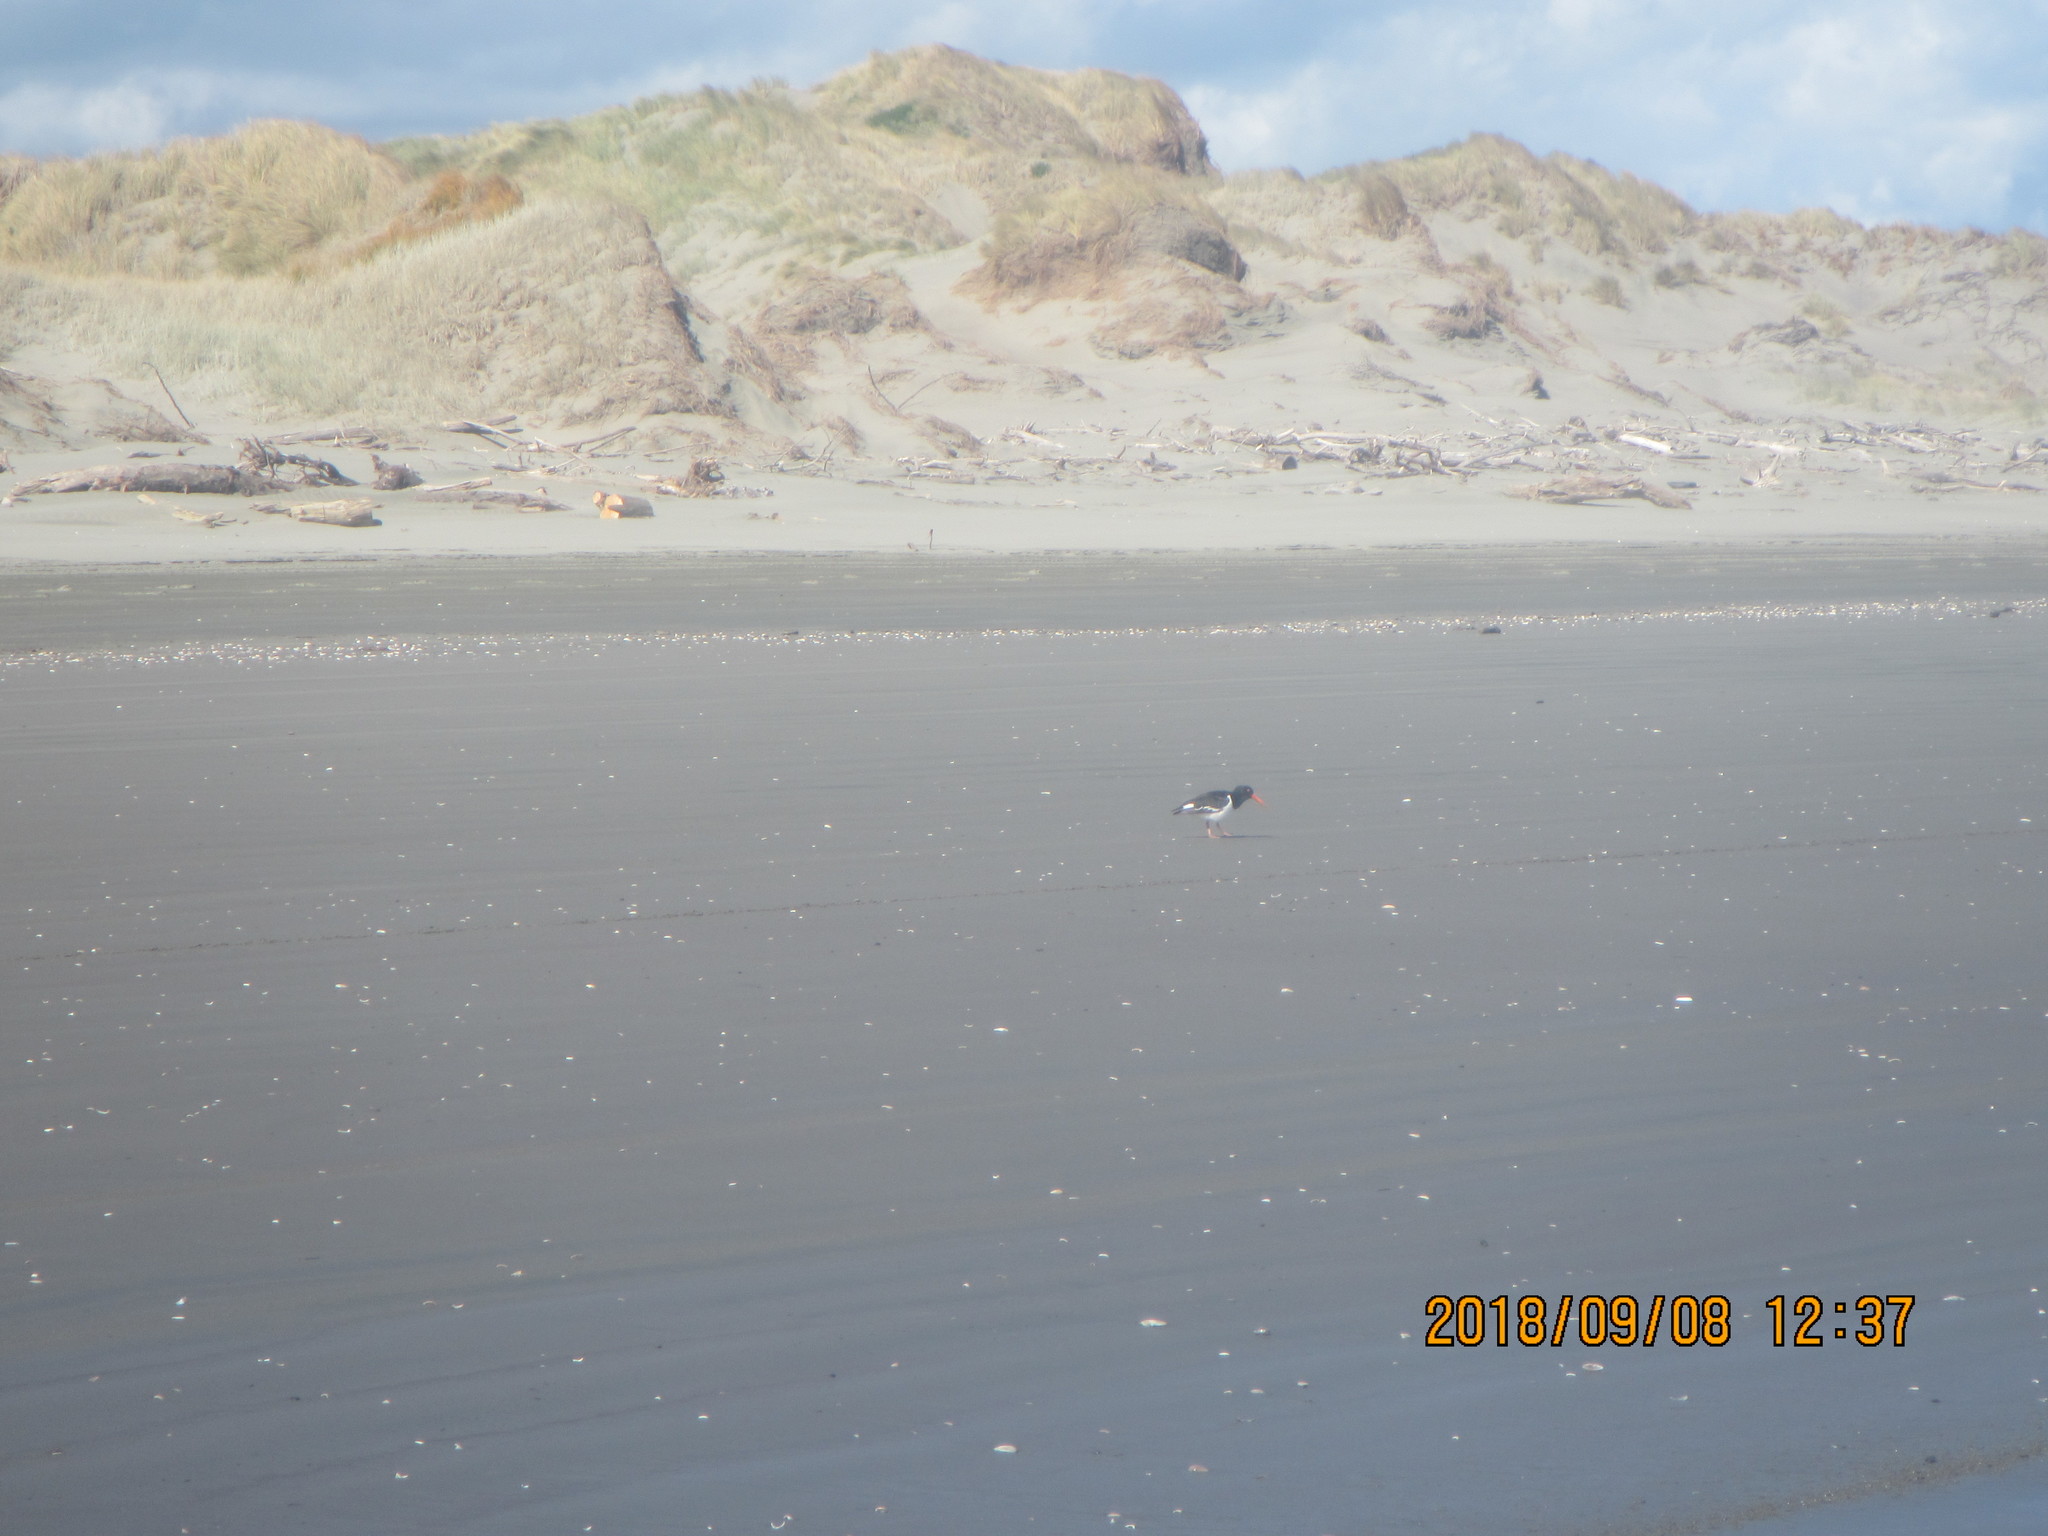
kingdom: Animalia
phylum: Chordata
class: Aves
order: Charadriiformes
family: Haematopodidae
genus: Haematopus
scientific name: Haematopus finschi
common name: South island oystercatcher
